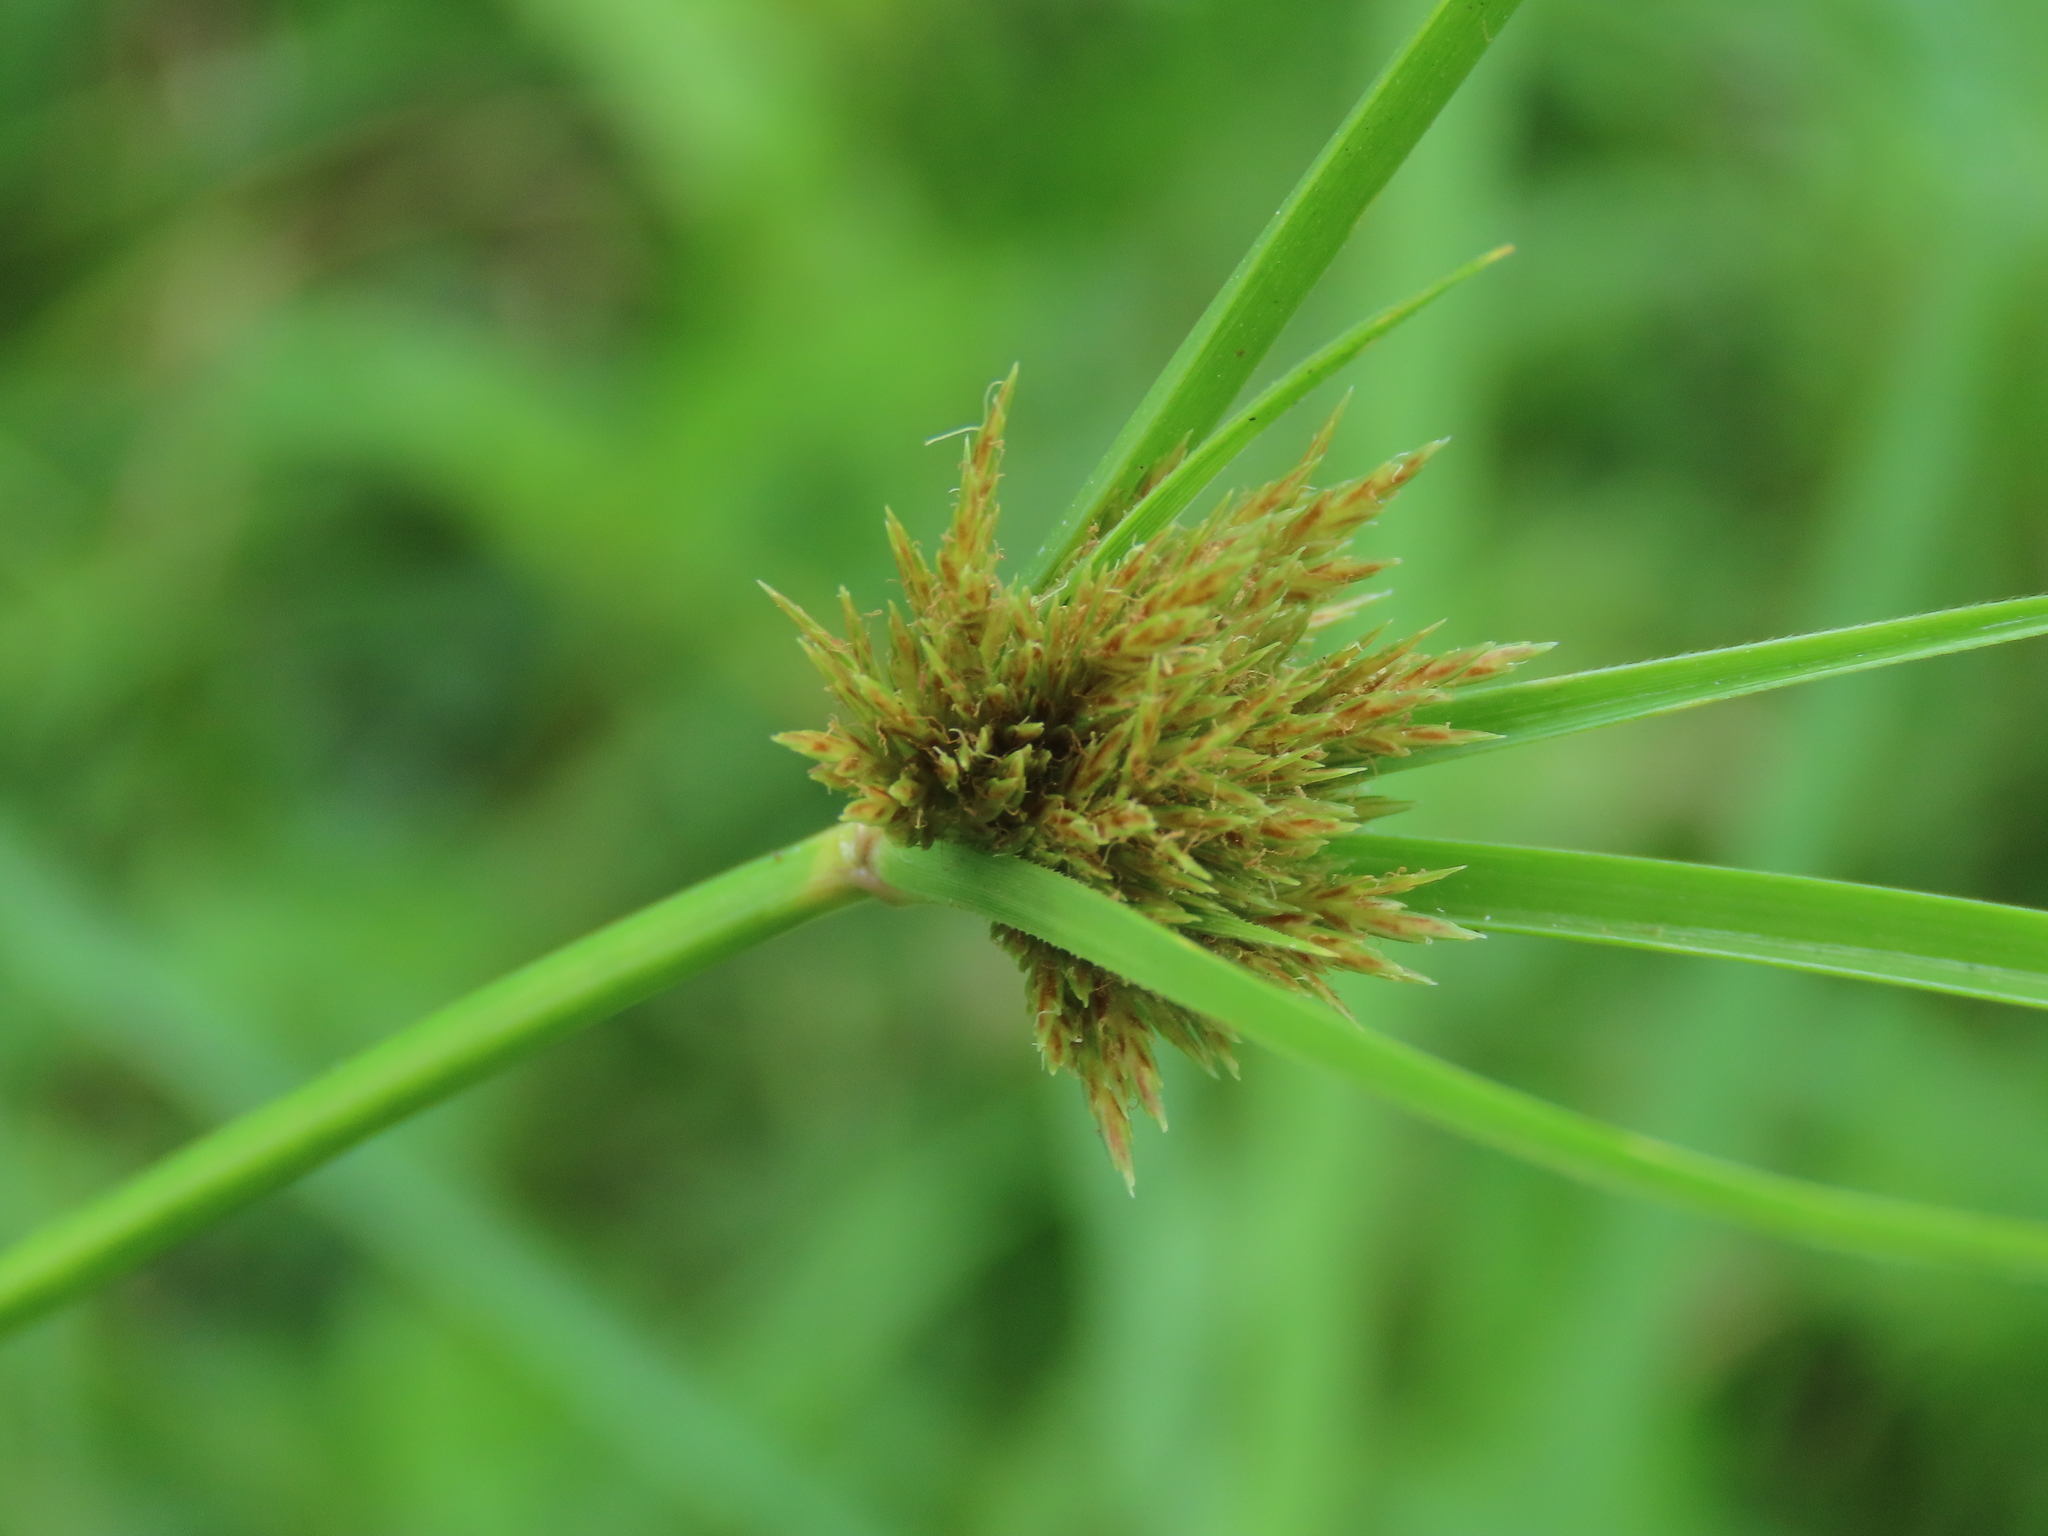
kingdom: Plantae
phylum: Tracheophyta
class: Liliopsida
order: Poales
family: Cyperaceae
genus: Cyperus
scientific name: Cyperus polystachyos
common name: Bunchy flat sedge
